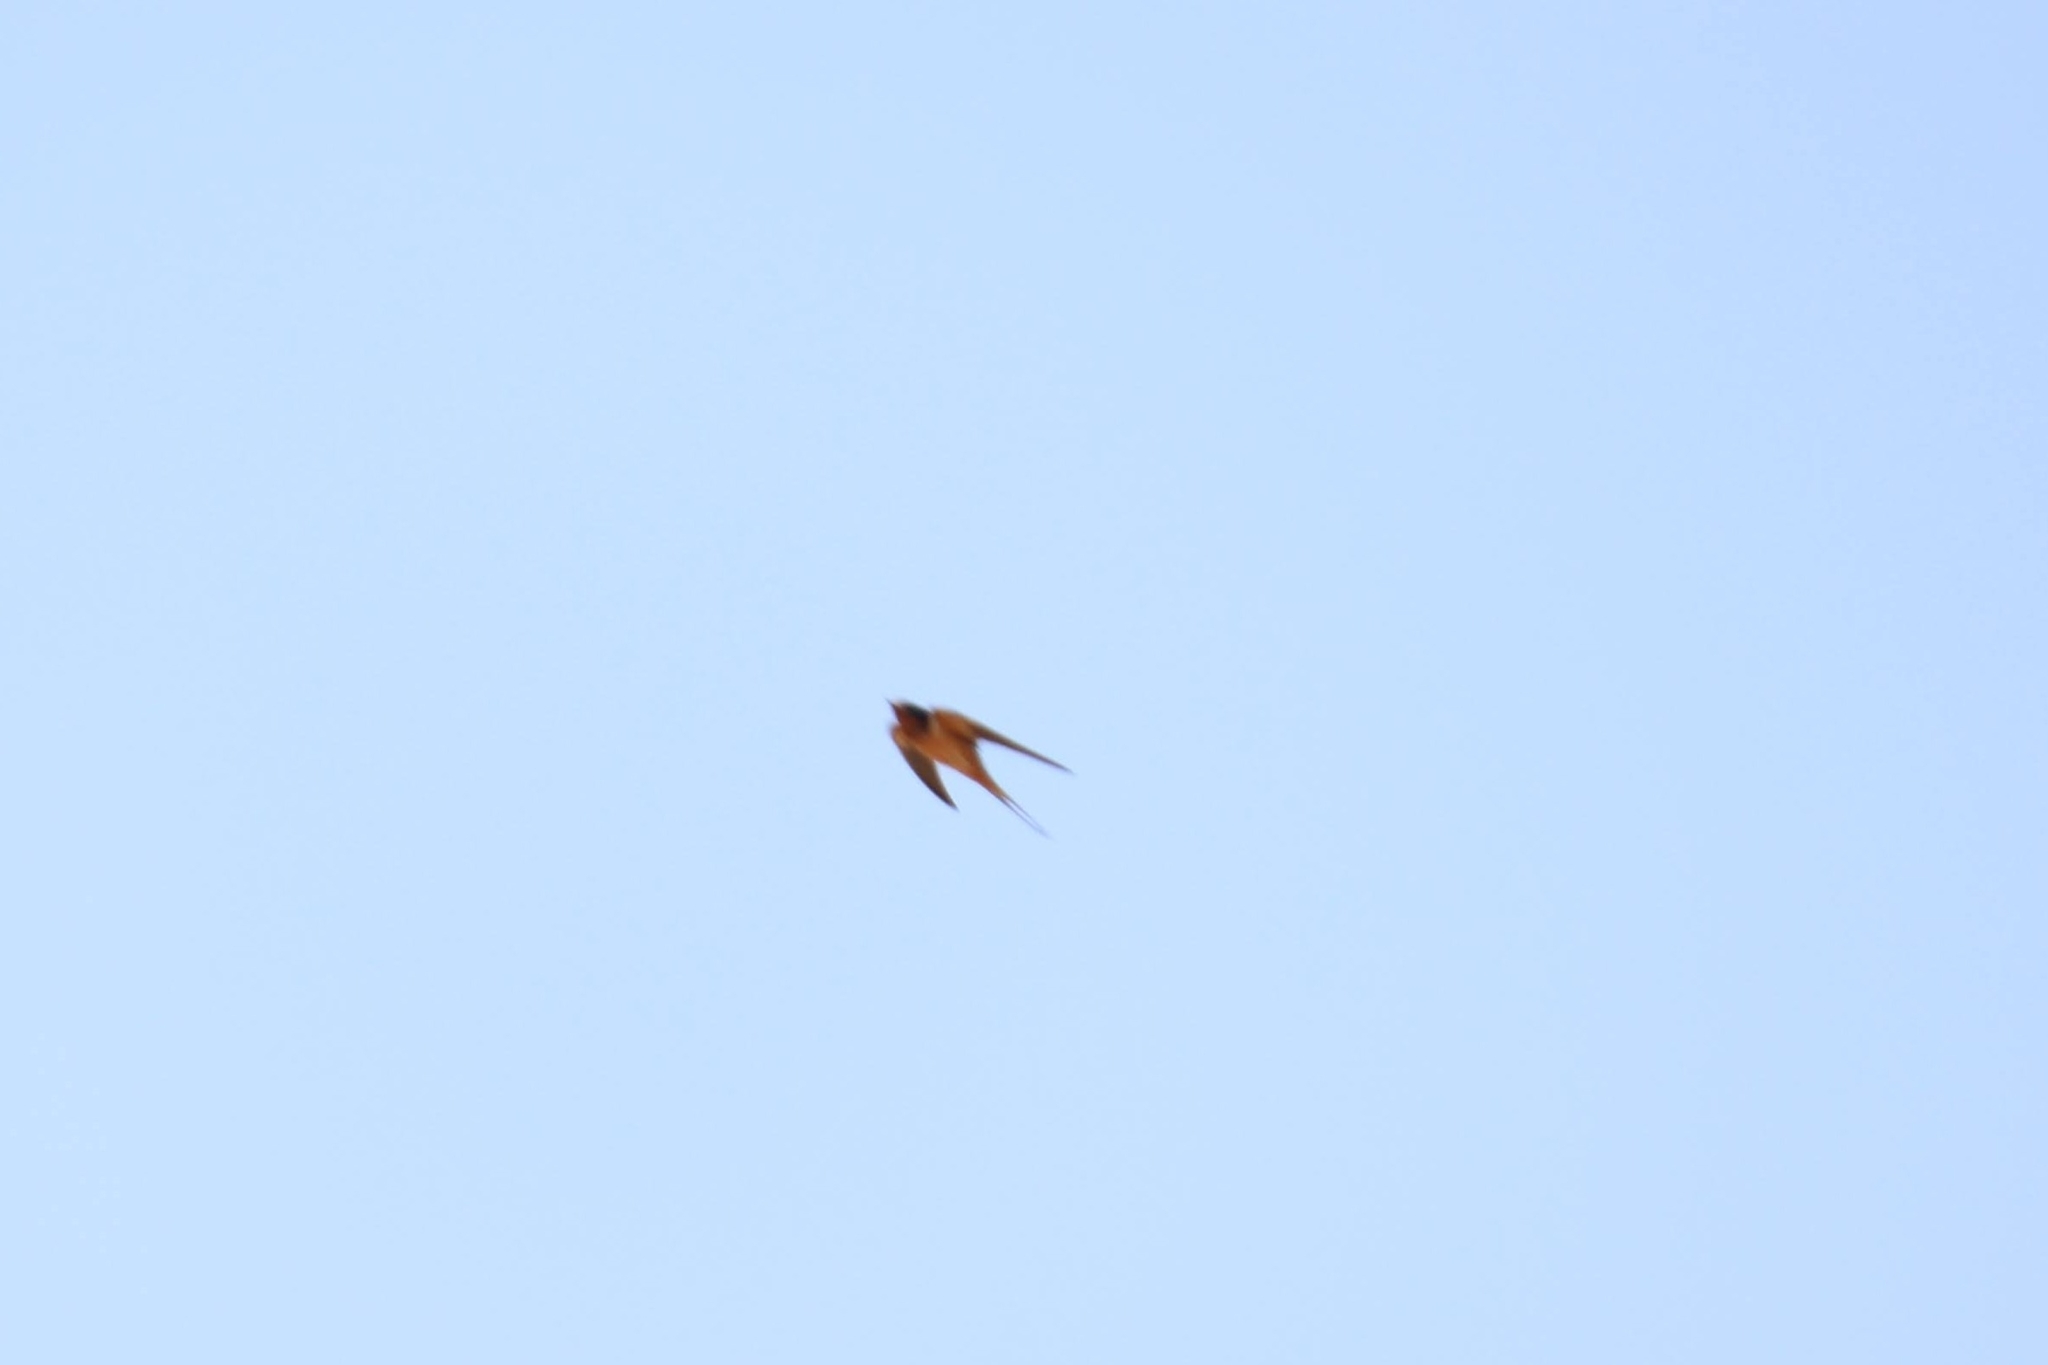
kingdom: Animalia
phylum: Chordata
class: Aves
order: Passeriformes
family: Hirundinidae
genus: Hirundo
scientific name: Hirundo rustica
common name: Barn swallow
